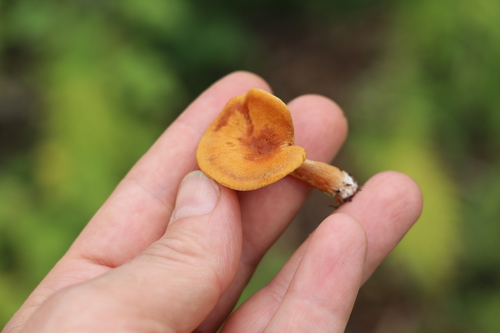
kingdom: Fungi
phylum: Basidiomycota
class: Agaricomycetes
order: Agaricales
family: Hymenogastraceae
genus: Gymnopilus
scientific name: Gymnopilus penetrans
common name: Common rustgill
